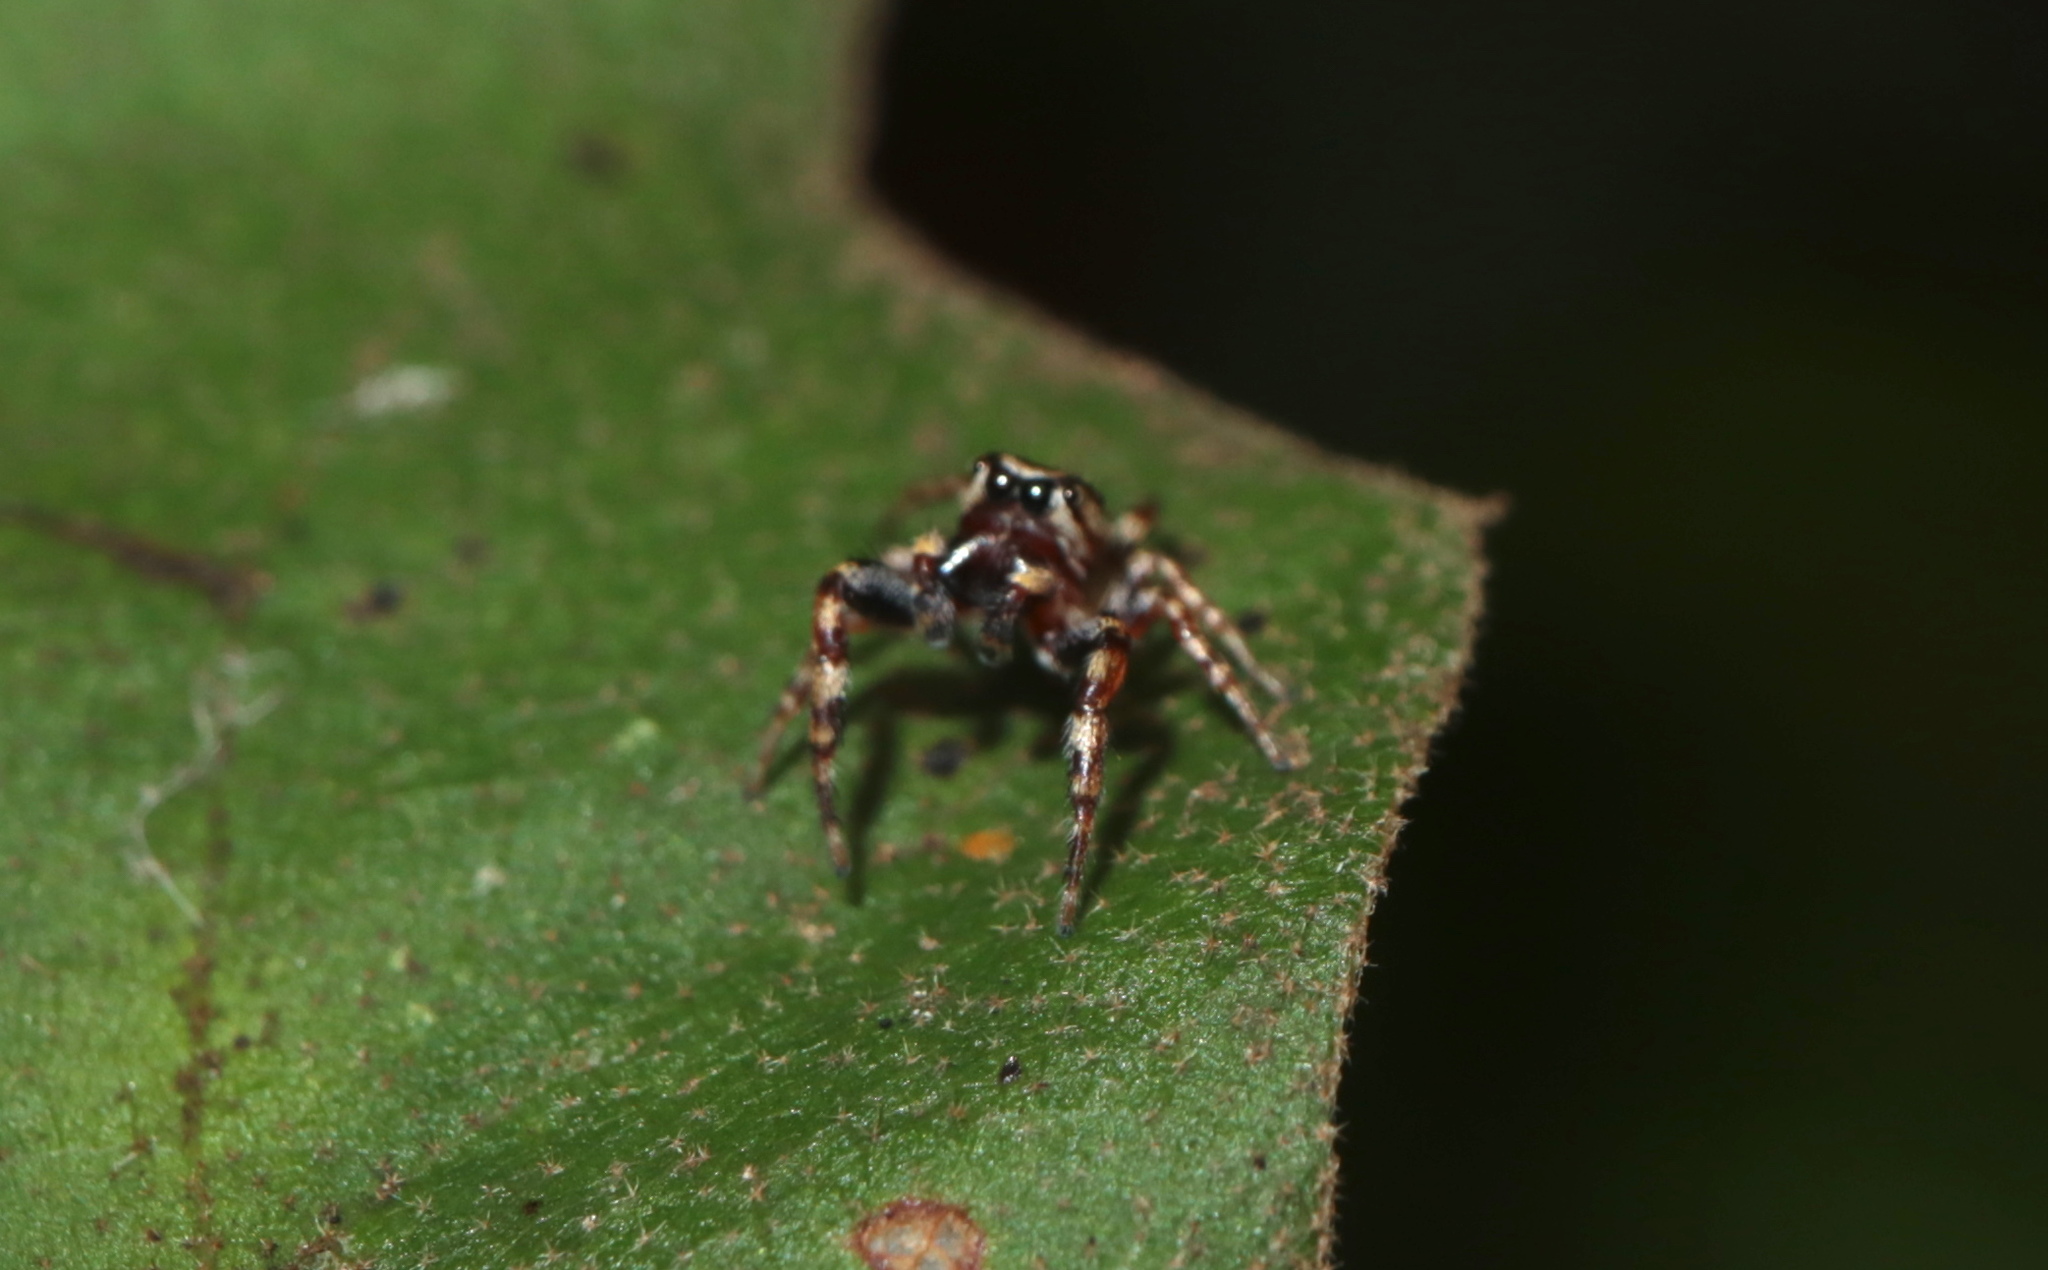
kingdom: Animalia
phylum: Arthropoda
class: Arachnida
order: Araneae
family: Salticidae
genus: Pelegrina
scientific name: Pelegrina proterva
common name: Common white-cheeked jumping spider
